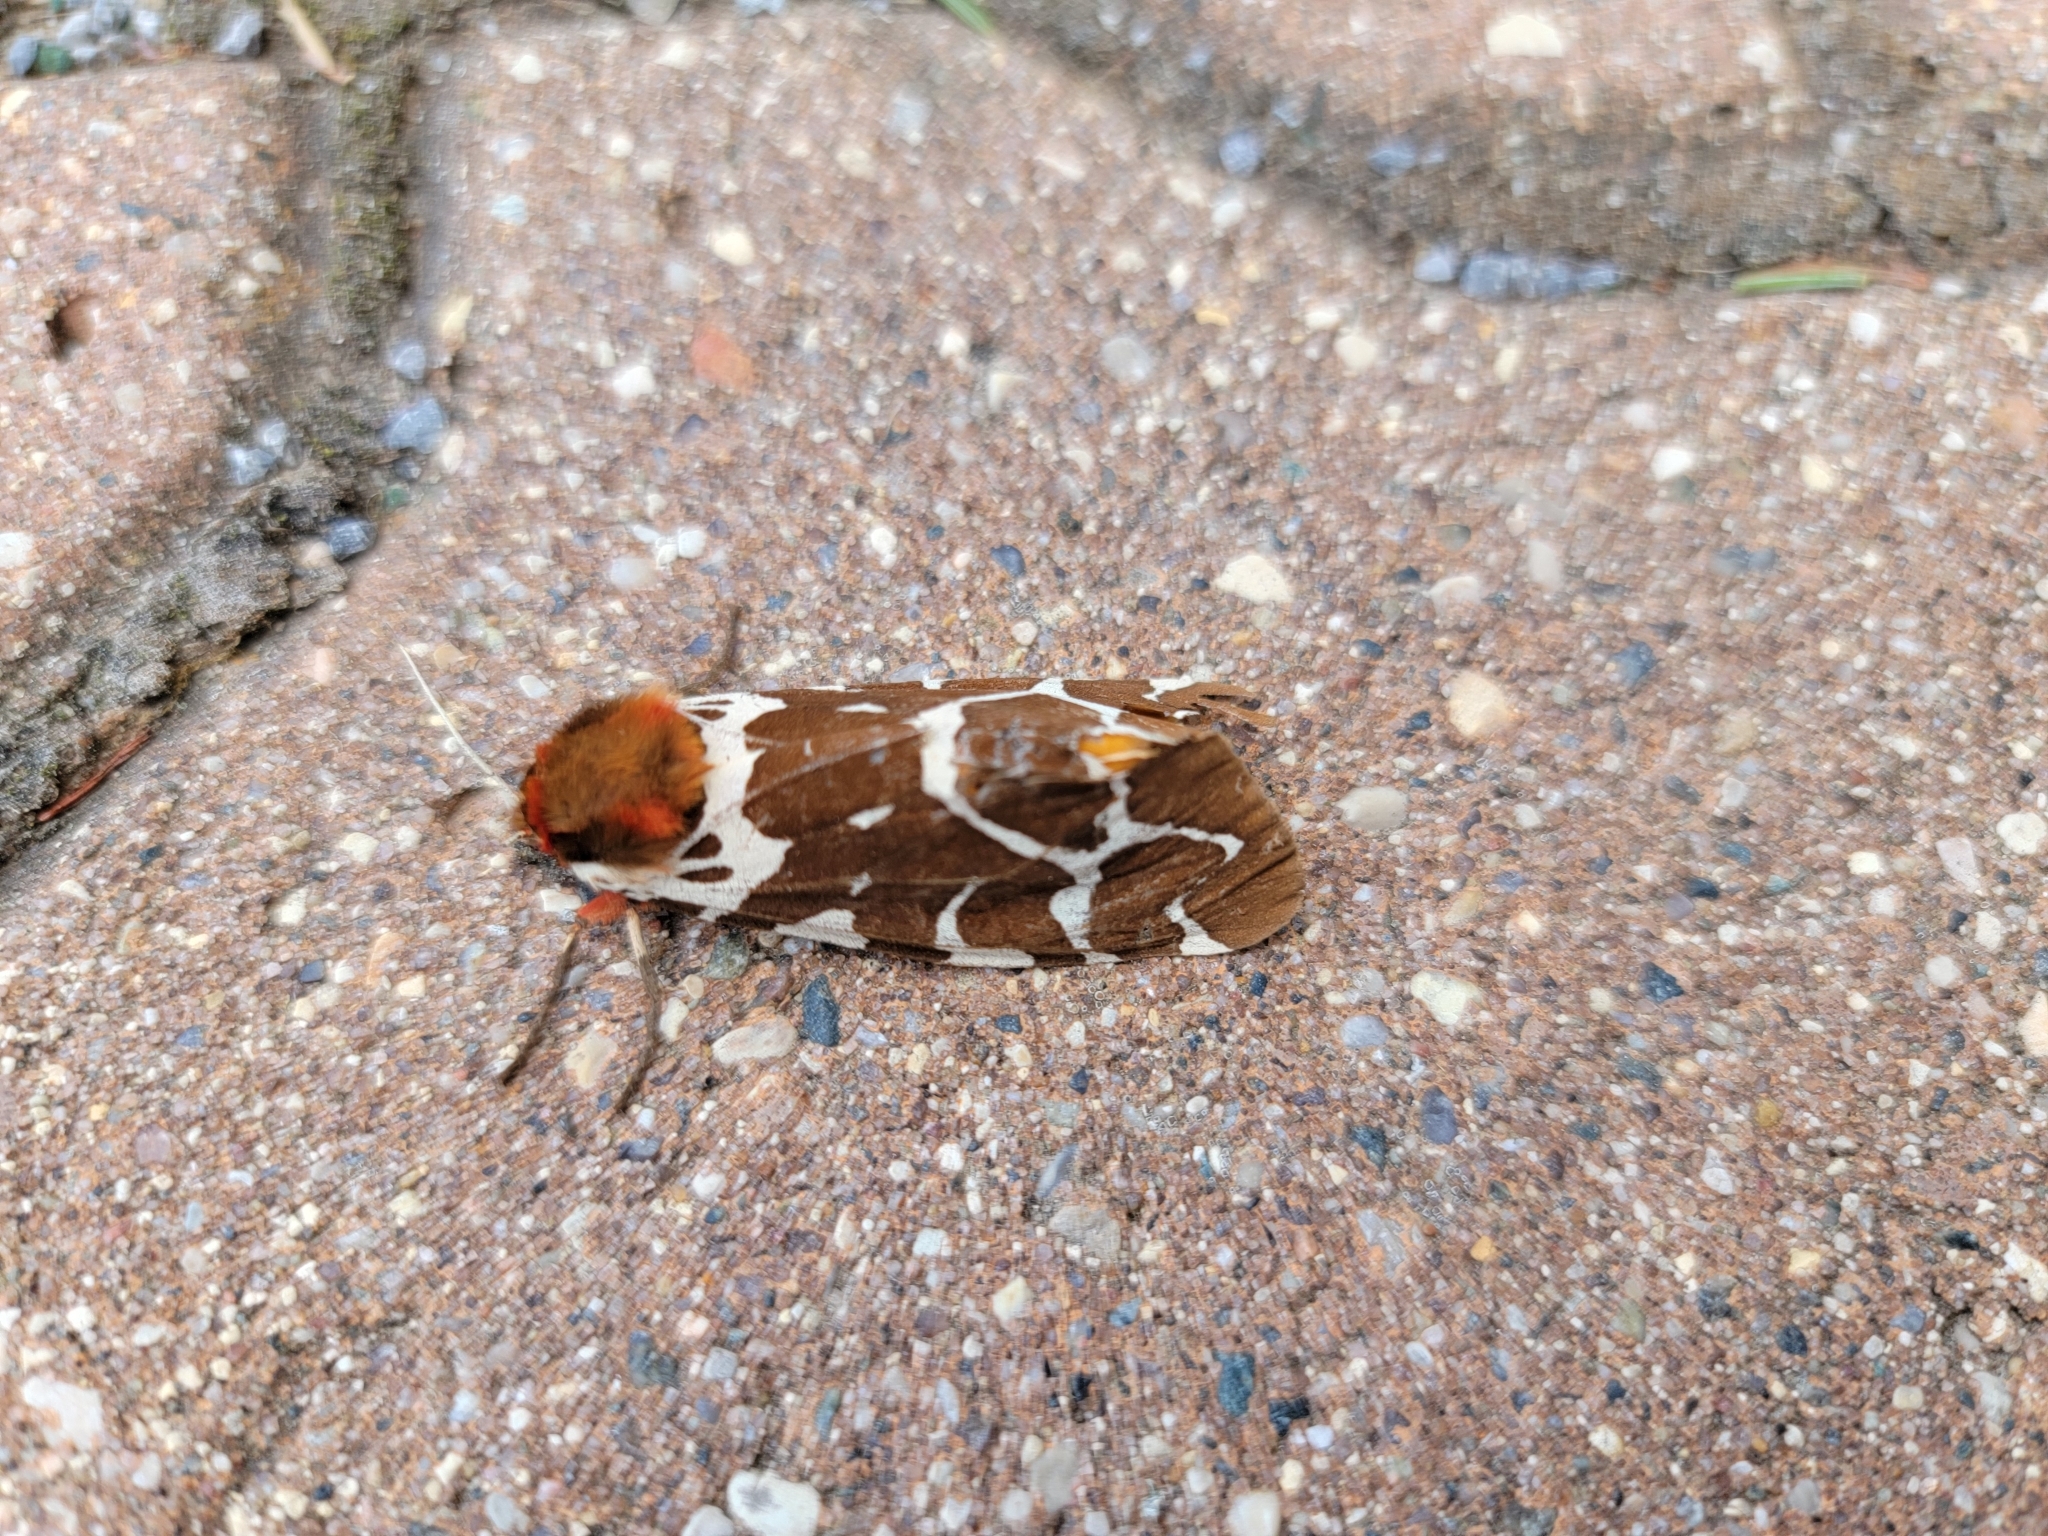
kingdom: Animalia
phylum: Arthropoda
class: Insecta
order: Lepidoptera
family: Erebidae
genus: Arctia
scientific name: Arctia caja
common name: Garden tiger
